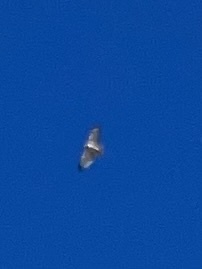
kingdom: Animalia
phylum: Chordata
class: Aves
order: Accipitriformes
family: Accipitridae
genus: Buteo
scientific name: Buteo jamaicensis
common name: Red-tailed hawk
